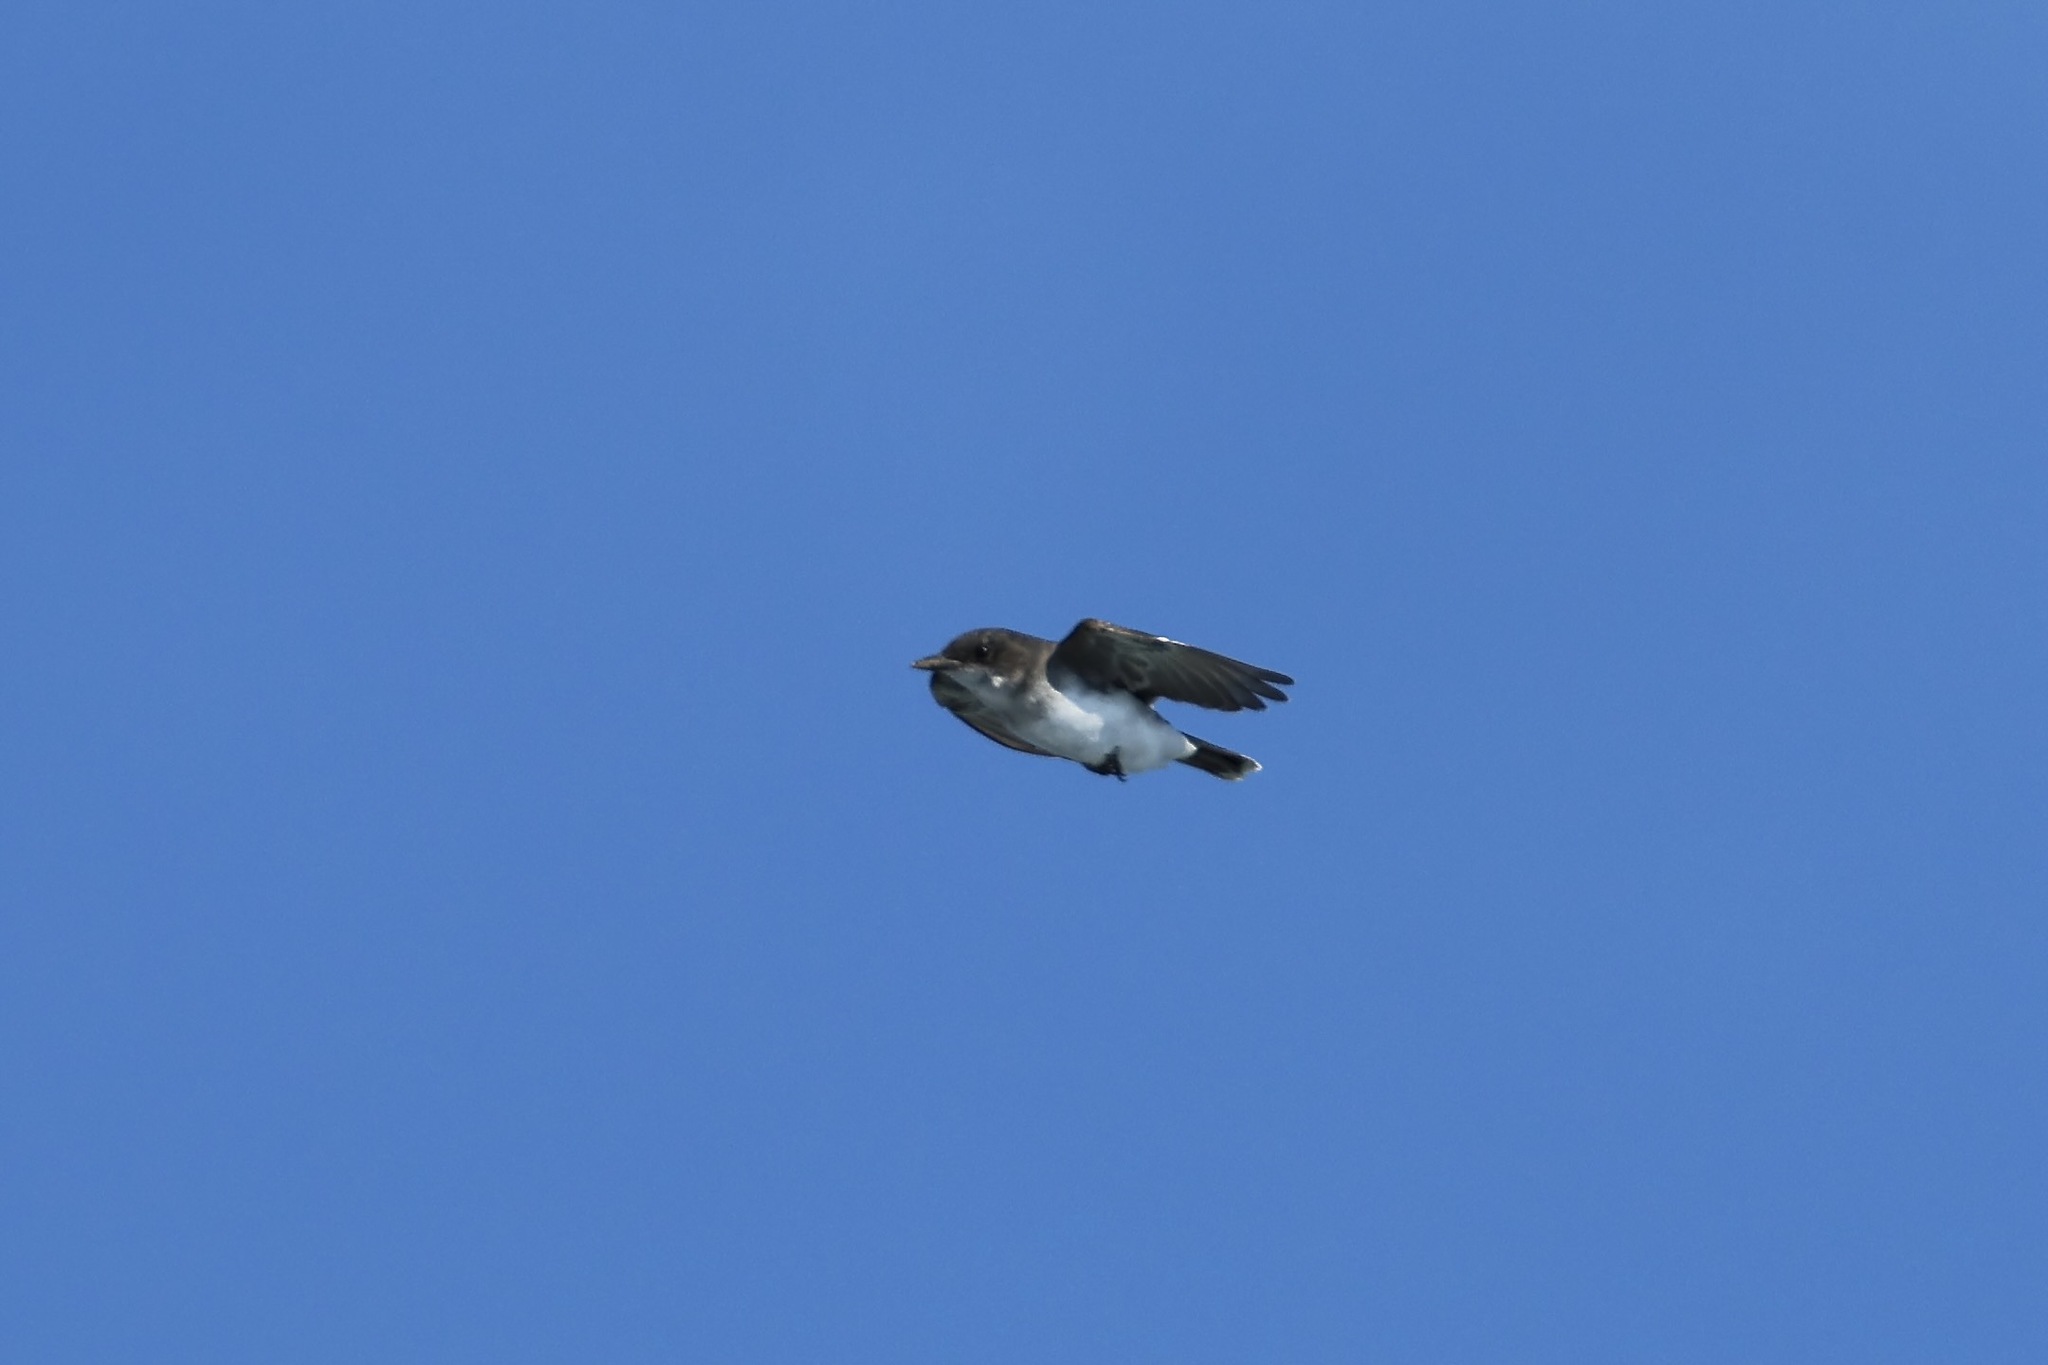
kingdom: Animalia
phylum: Chordata
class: Aves
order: Passeriformes
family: Tyrannidae
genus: Tyrannus
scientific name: Tyrannus tyrannus
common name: Eastern kingbird
